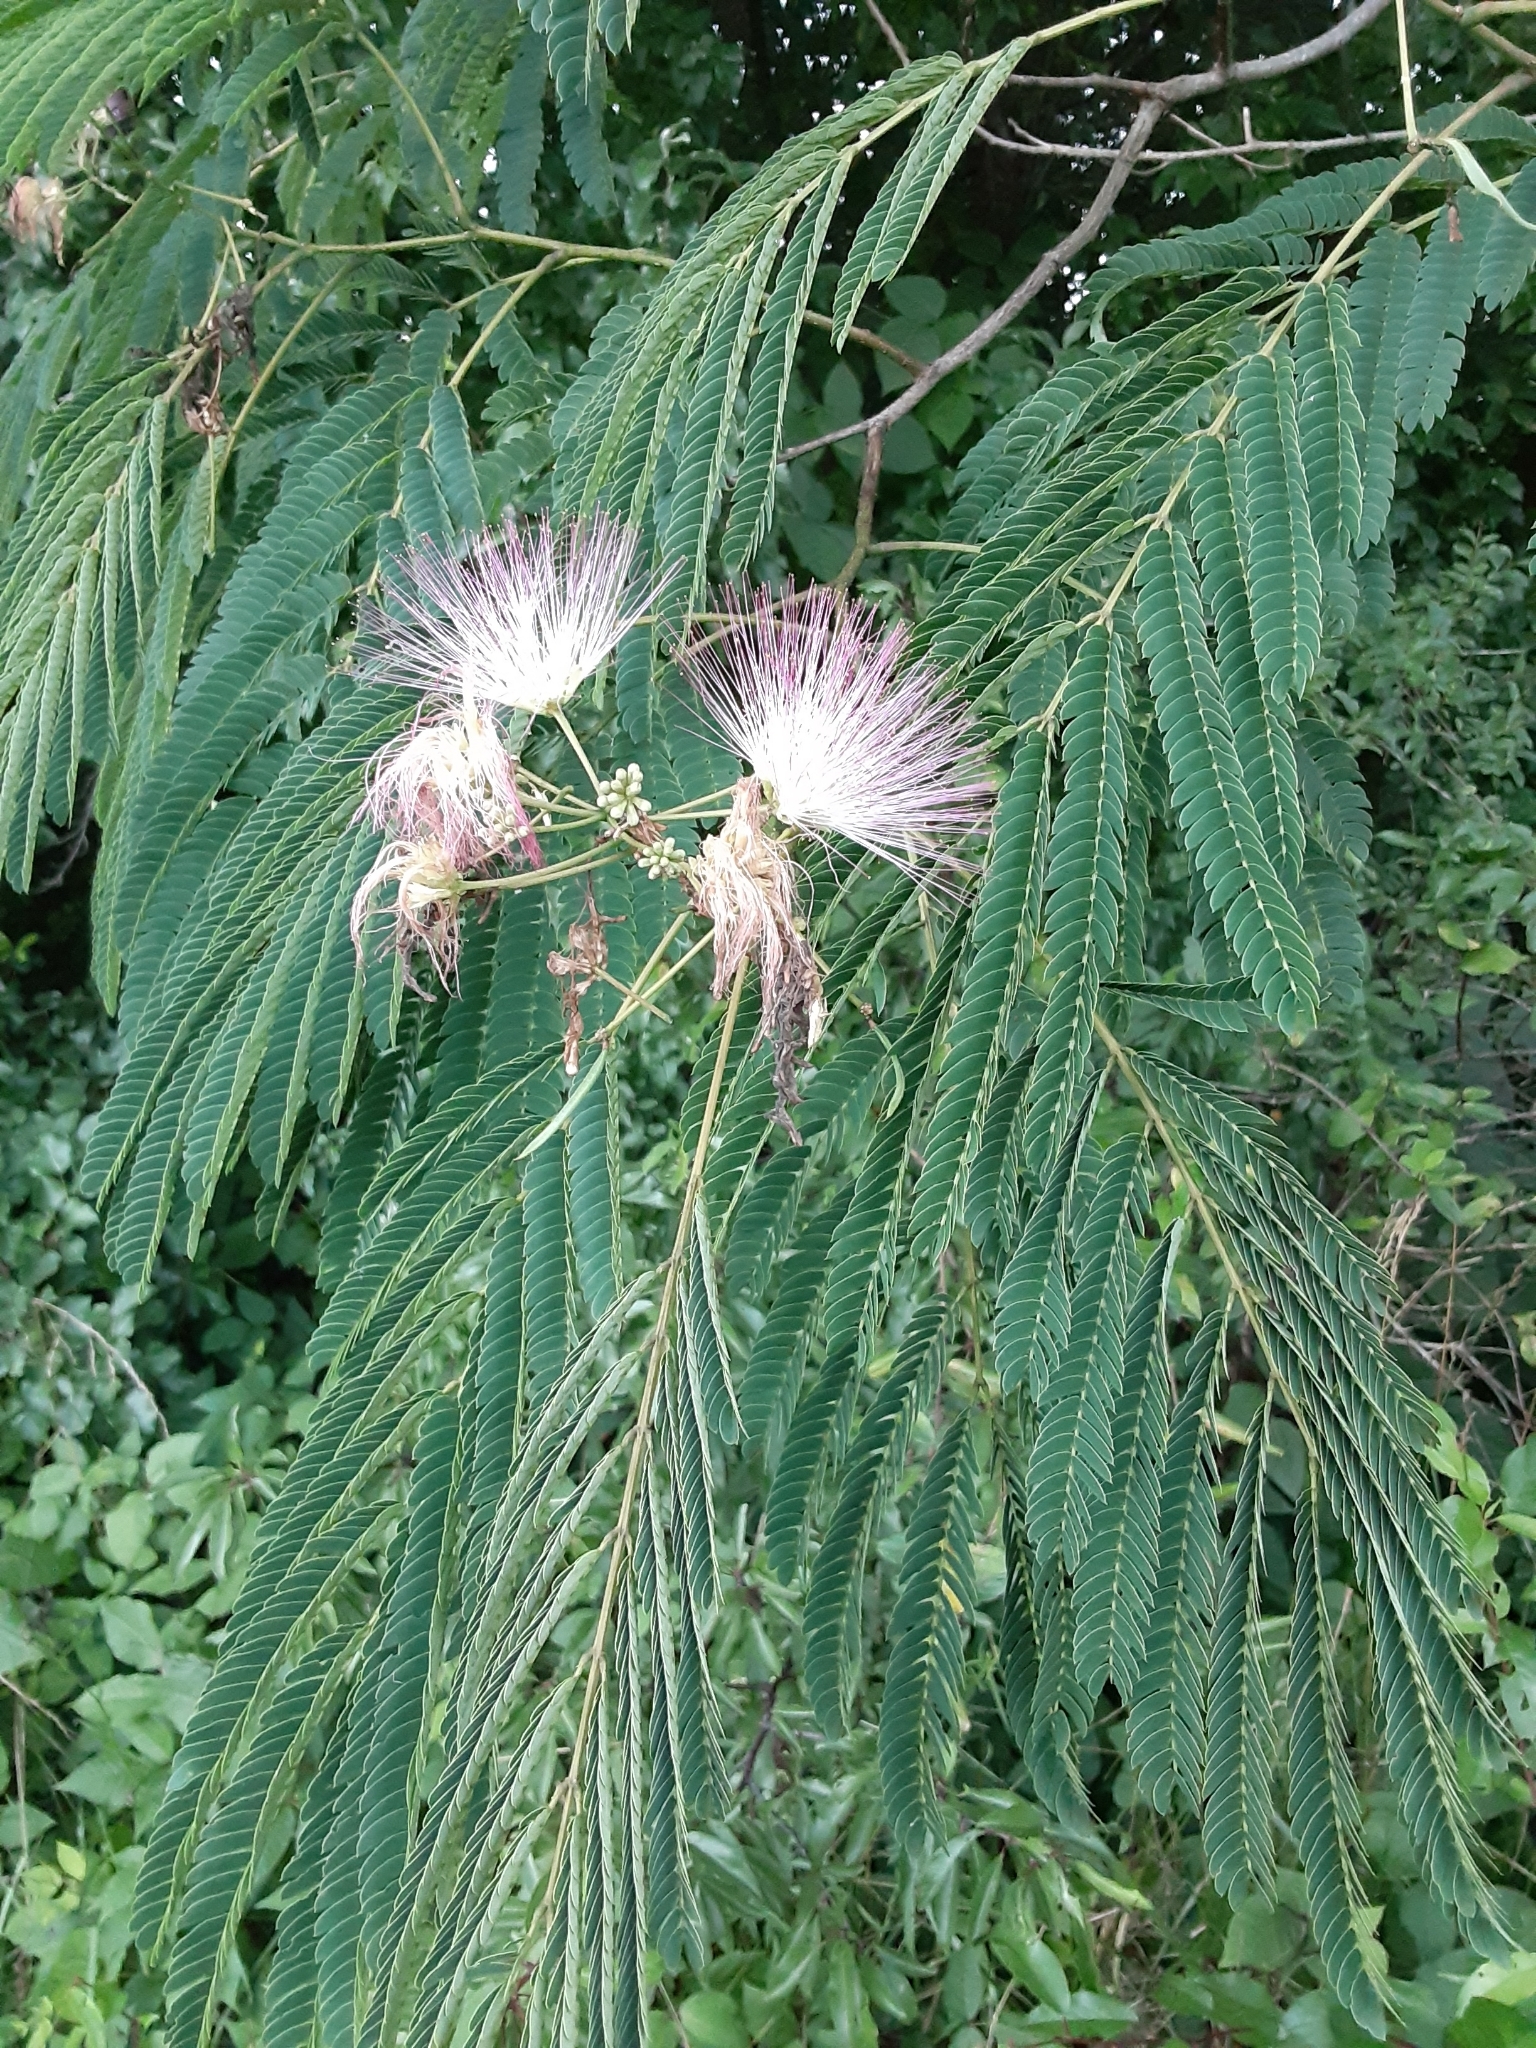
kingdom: Plantae
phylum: Tracheophyta
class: Magnoliopsida
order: Fabales
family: Fabaceae
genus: Albizia
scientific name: Albizia julibrissin
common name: Silktree
